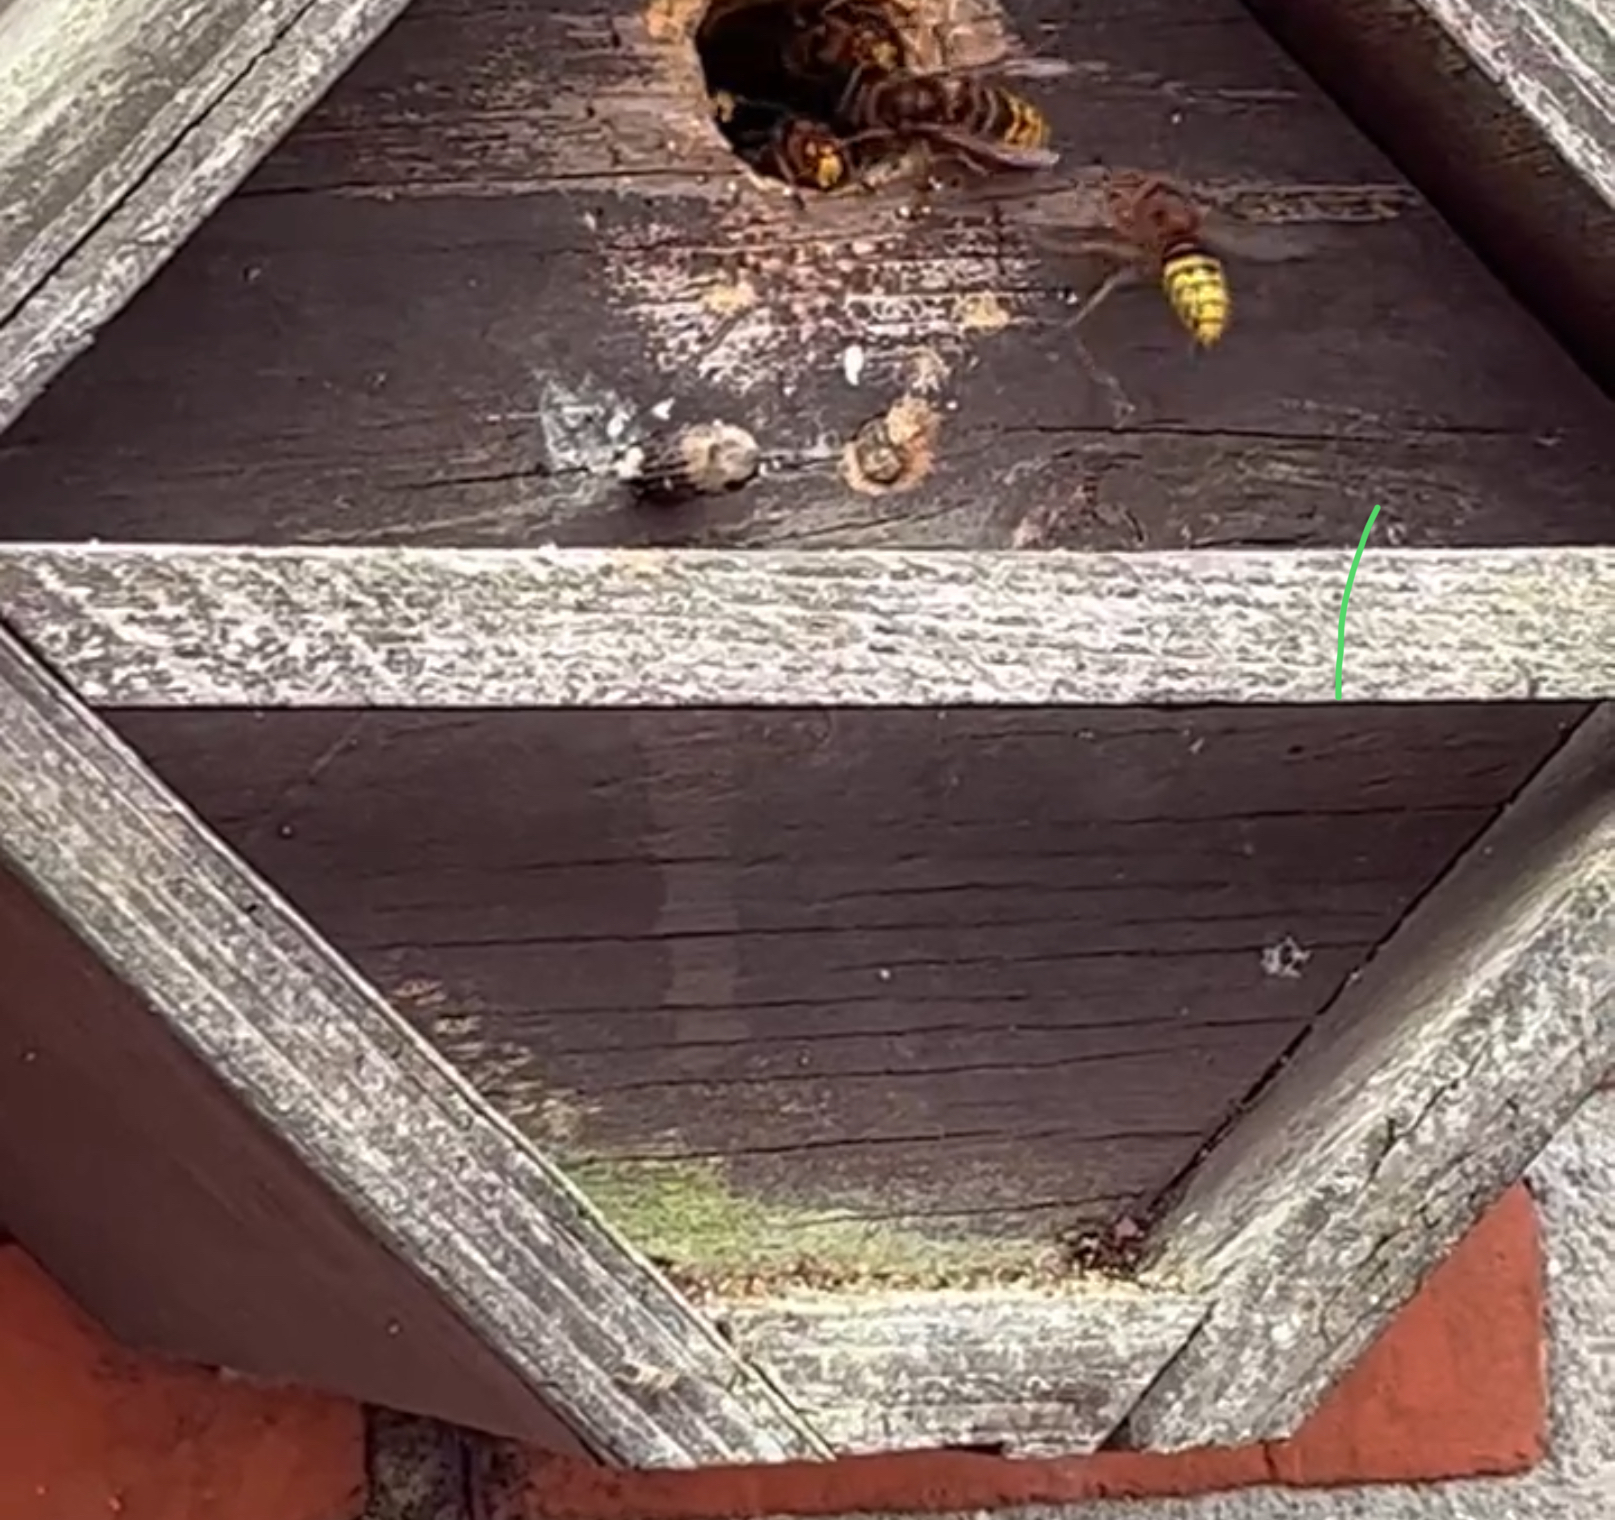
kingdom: Animalia
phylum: Arthropoda
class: Insecta
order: Hymenoptera
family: Vespidae
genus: Vespa
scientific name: Vespa crabro
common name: Hornet
